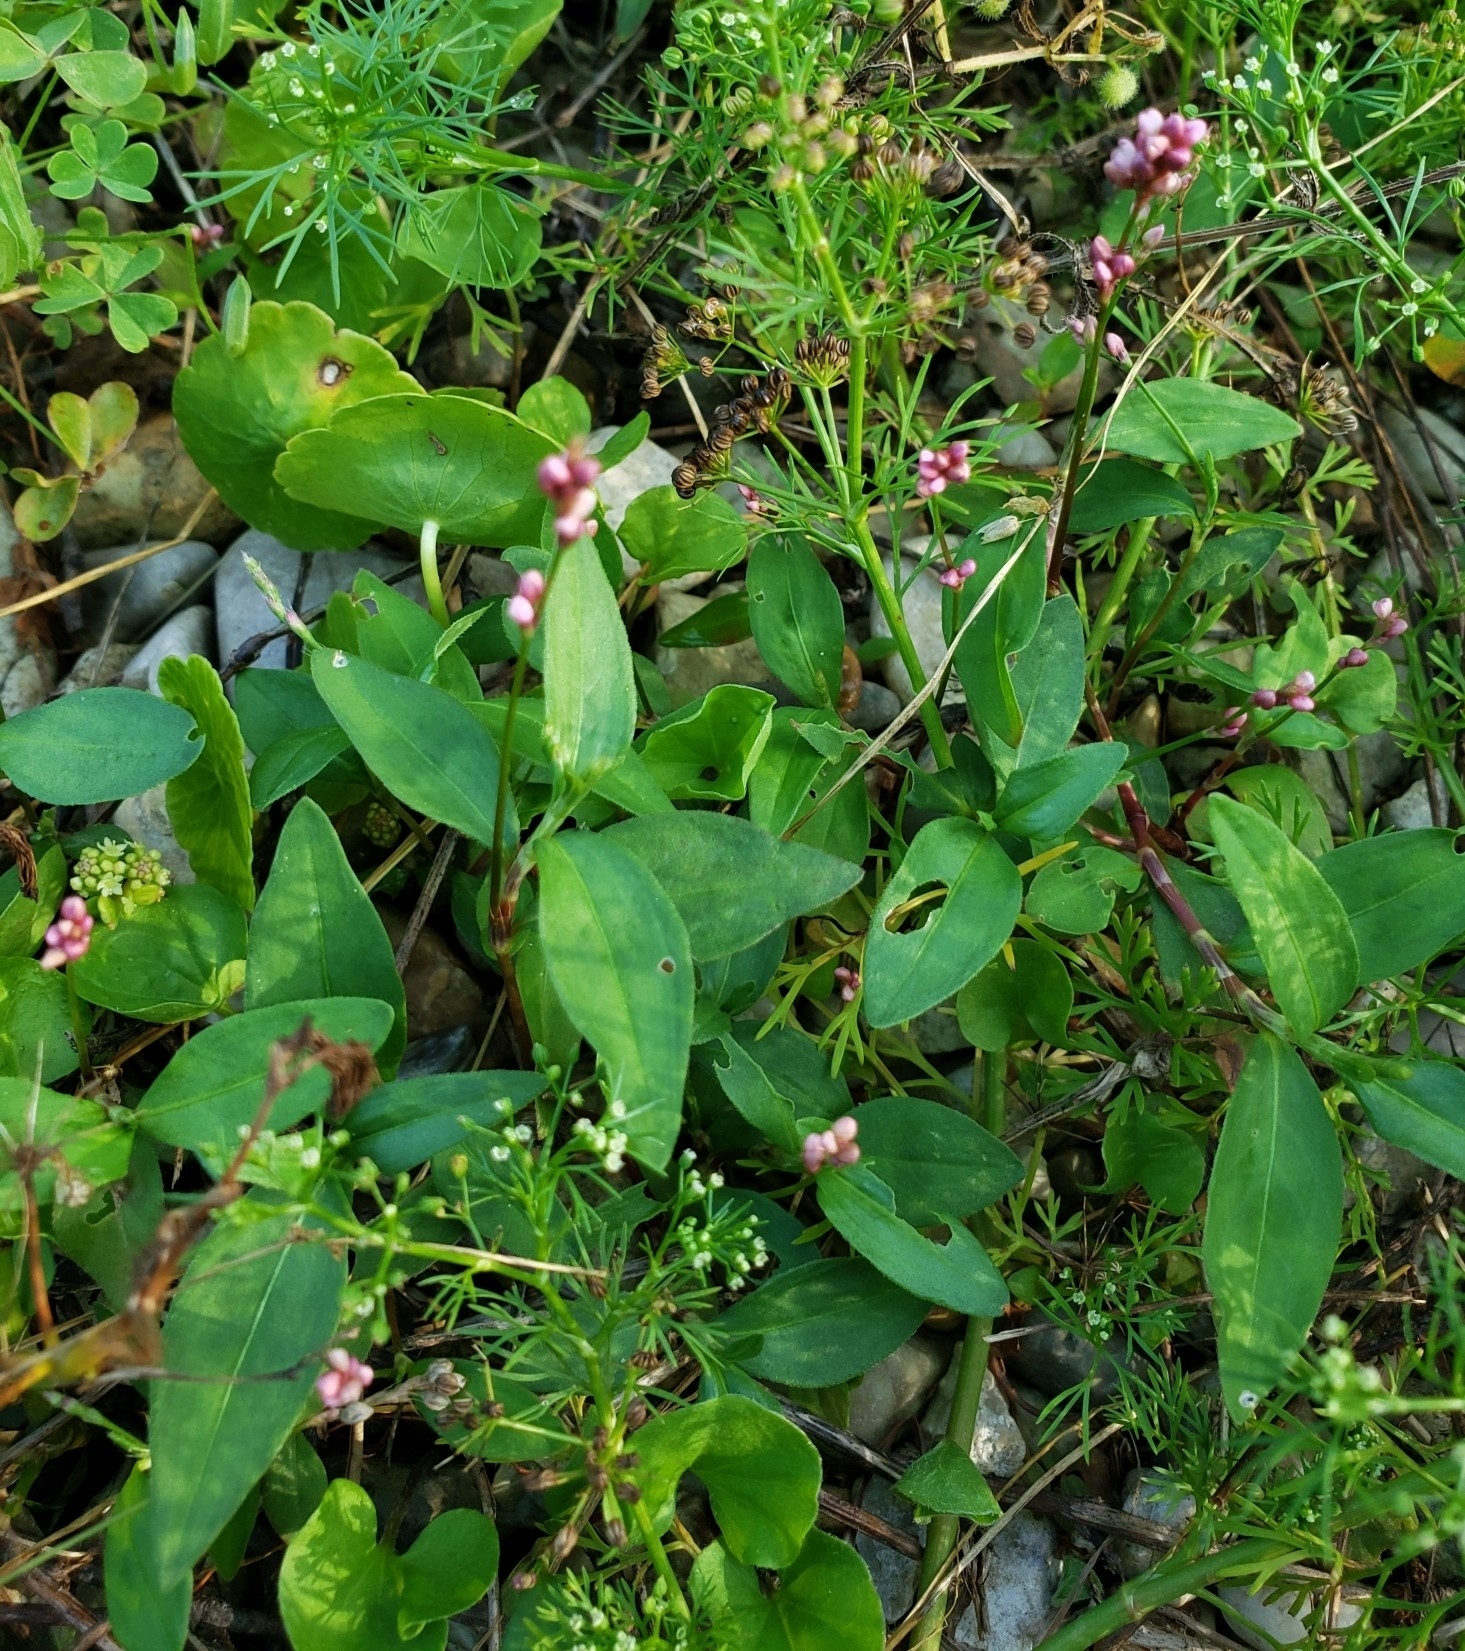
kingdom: Plantae
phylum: Tracheophyta
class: Magnoliopsida
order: Caryophyllales
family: Polygonaceae
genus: Persicaria
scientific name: Persicaria longiseta
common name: Bristly lady's-thumb
